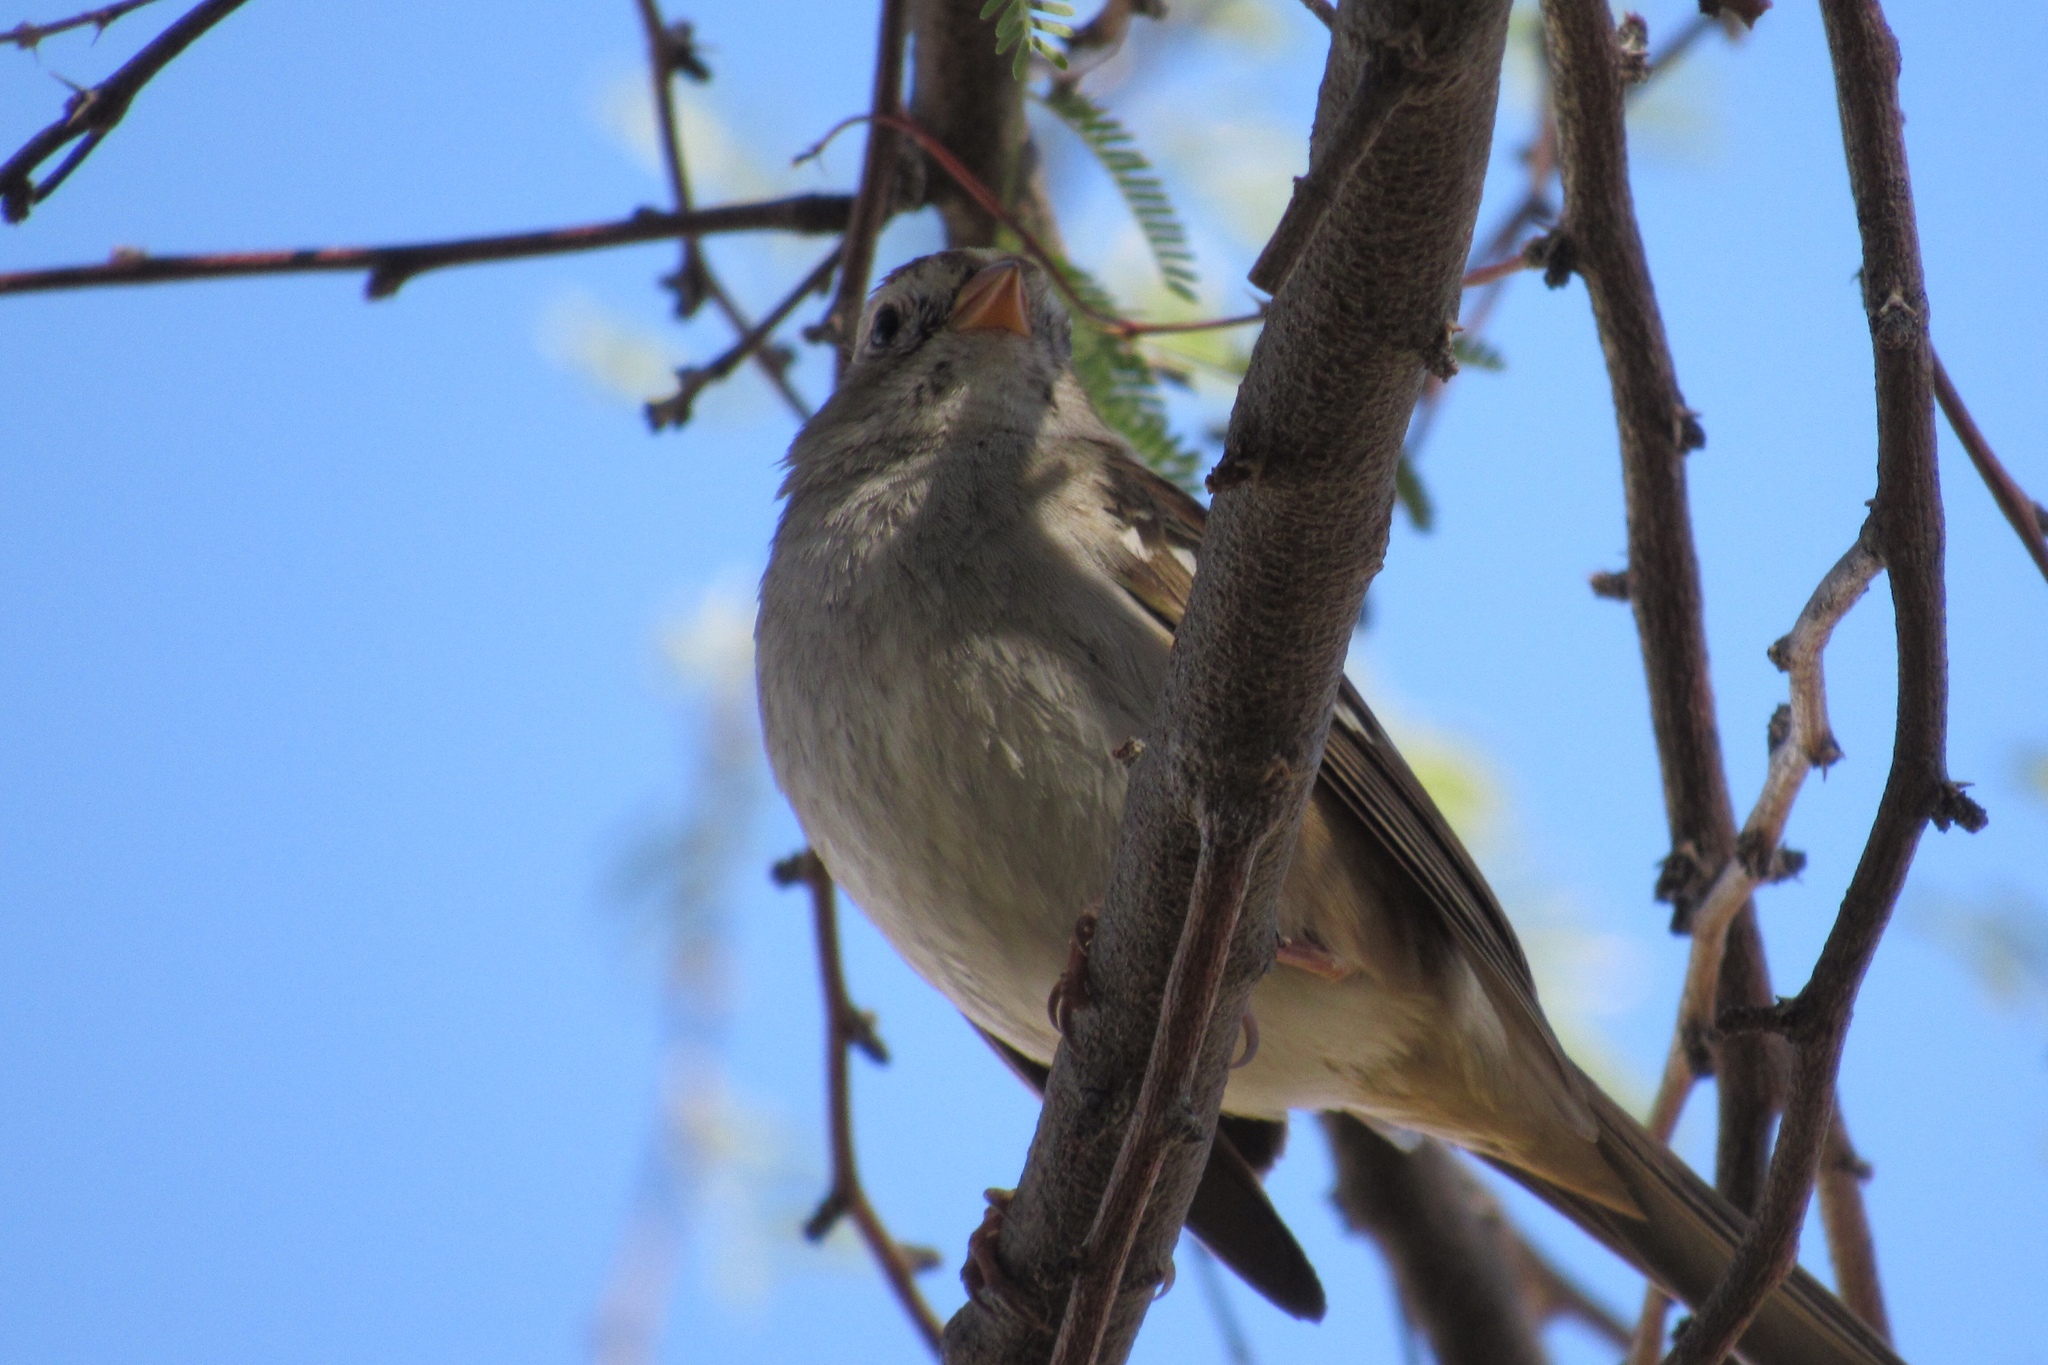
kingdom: Animalia
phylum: Chordata
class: Aves
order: Passeriformes
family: Passerellidae
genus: Zonotrichia
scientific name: Zonotrichia leucophrys
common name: White-crowned sparrow
